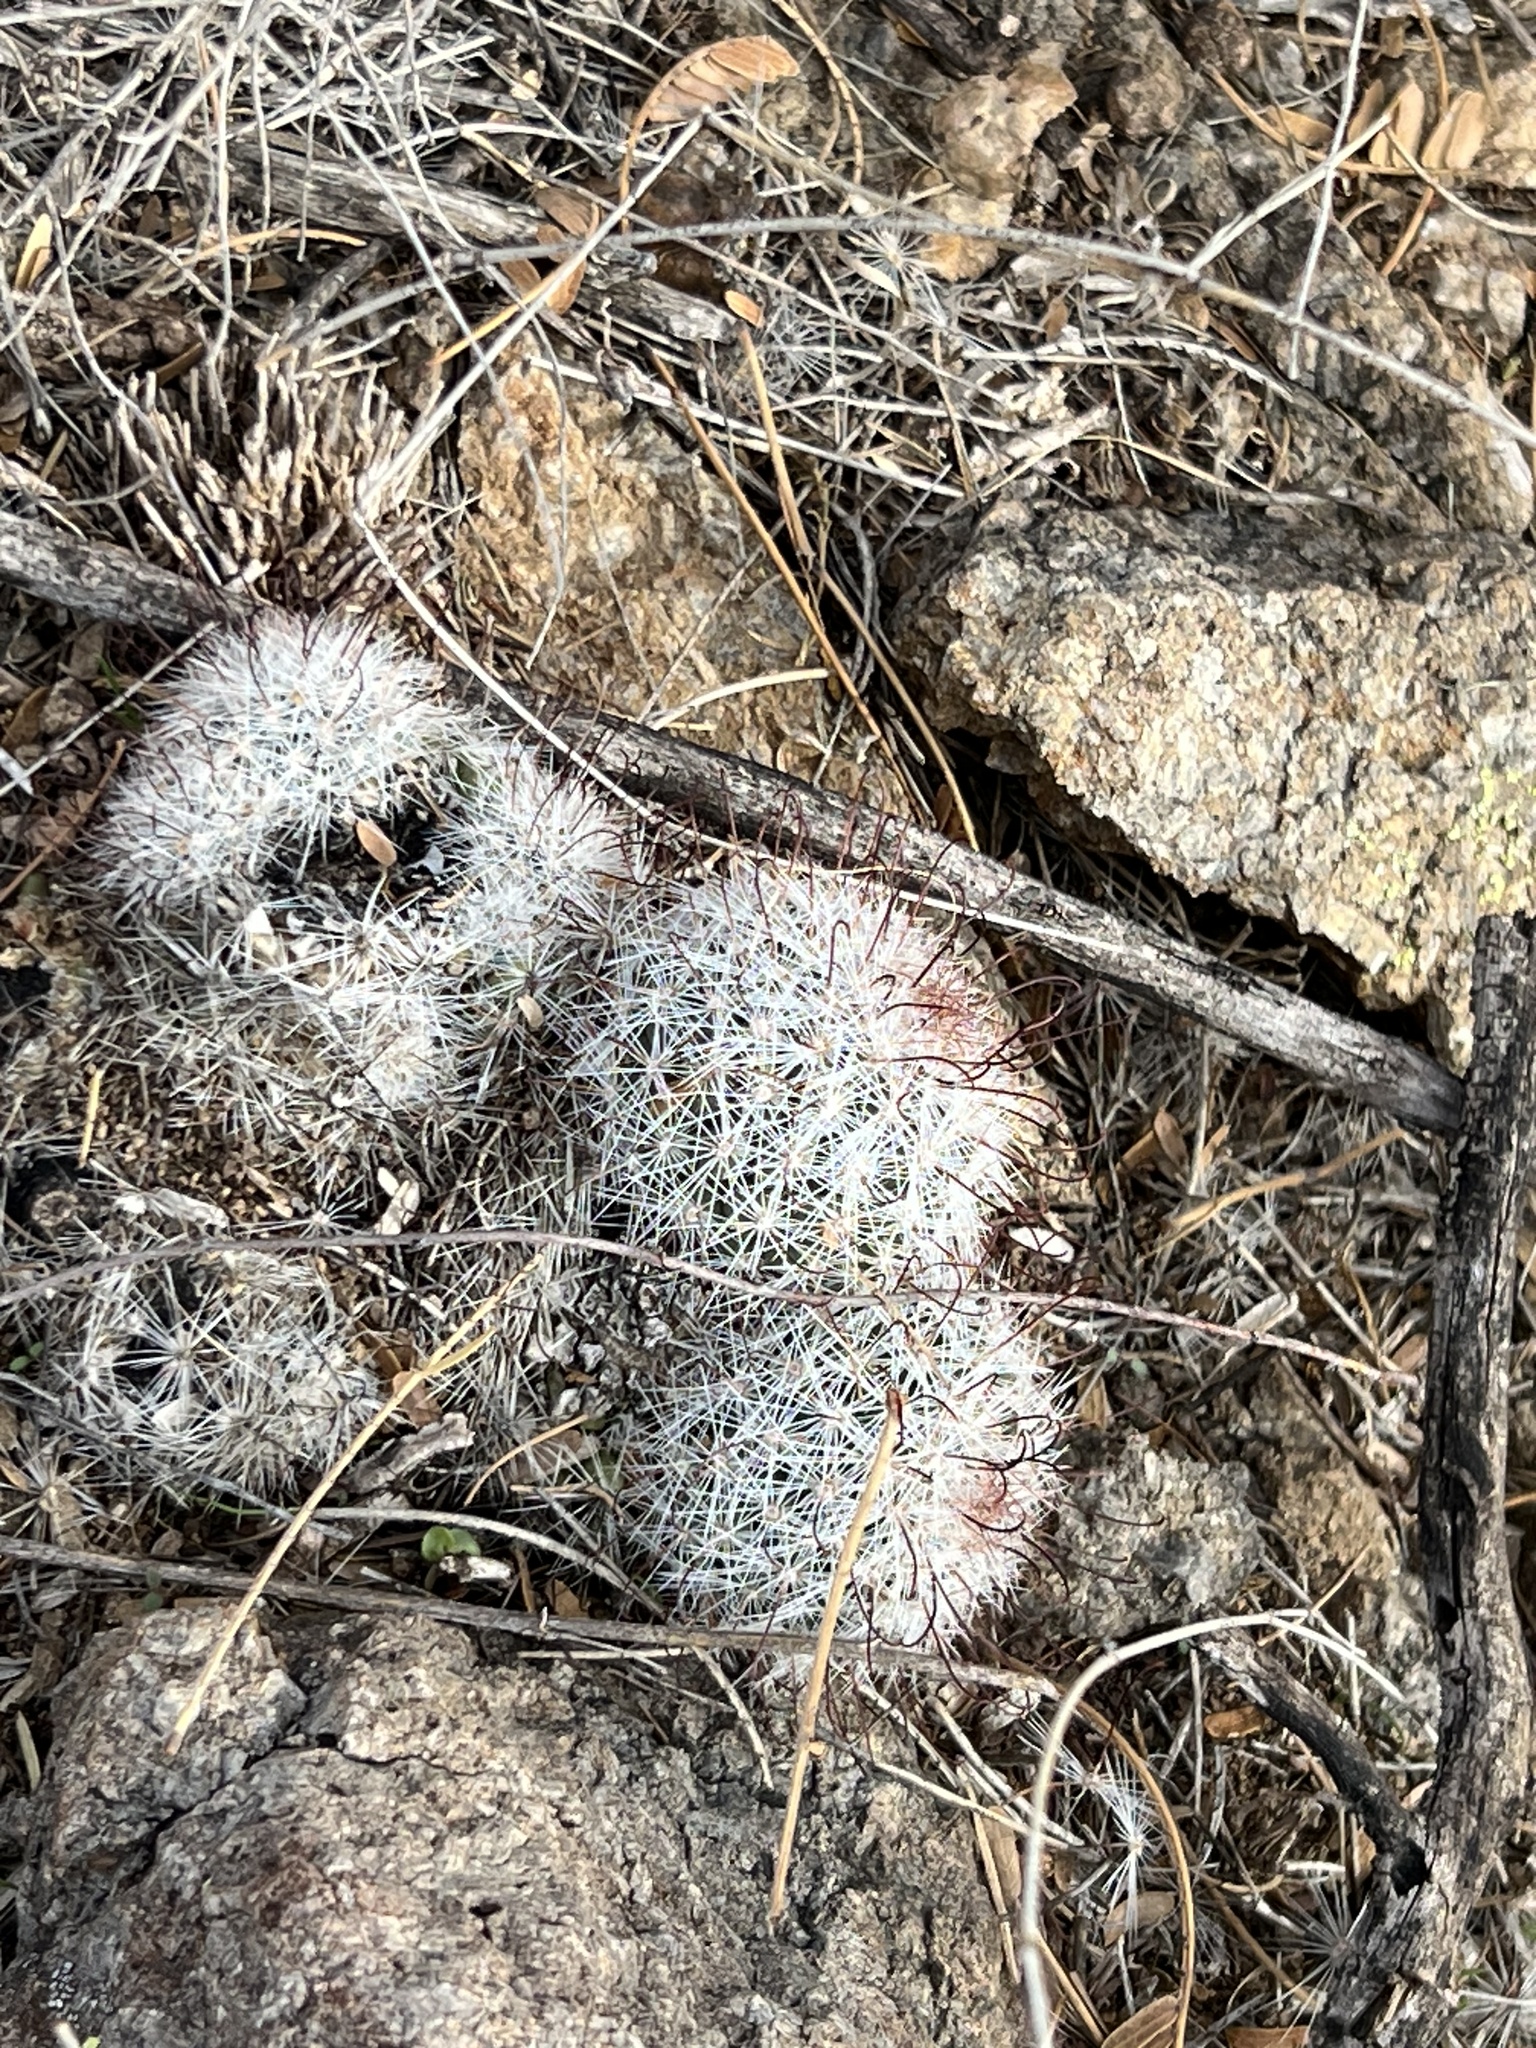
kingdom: Plantae
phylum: Tracheophyta
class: Magnoliopsida
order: Caryophyllales
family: Cactaceae
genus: Cochemiea
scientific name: Cochemiea grahamii
